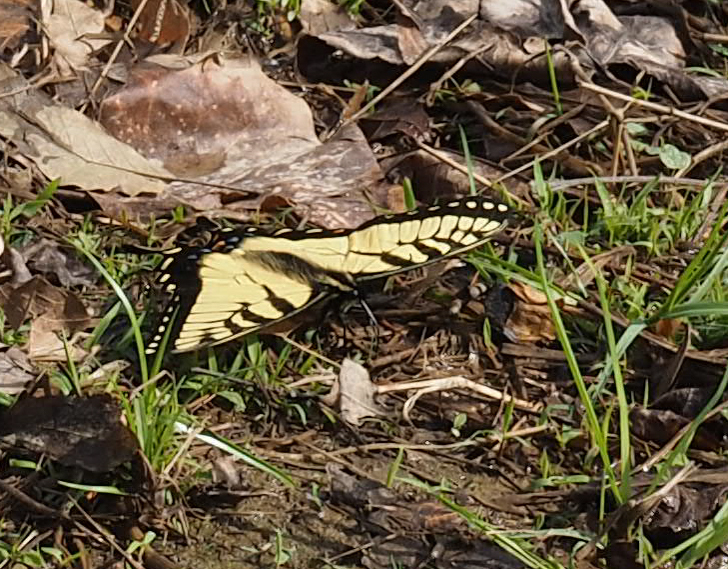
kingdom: Animalia
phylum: Arthropoda
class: Insecta
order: Lepidoptera
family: Papilionidae
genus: Papilio
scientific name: Papilio glaucus
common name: Tiger swallowtail
